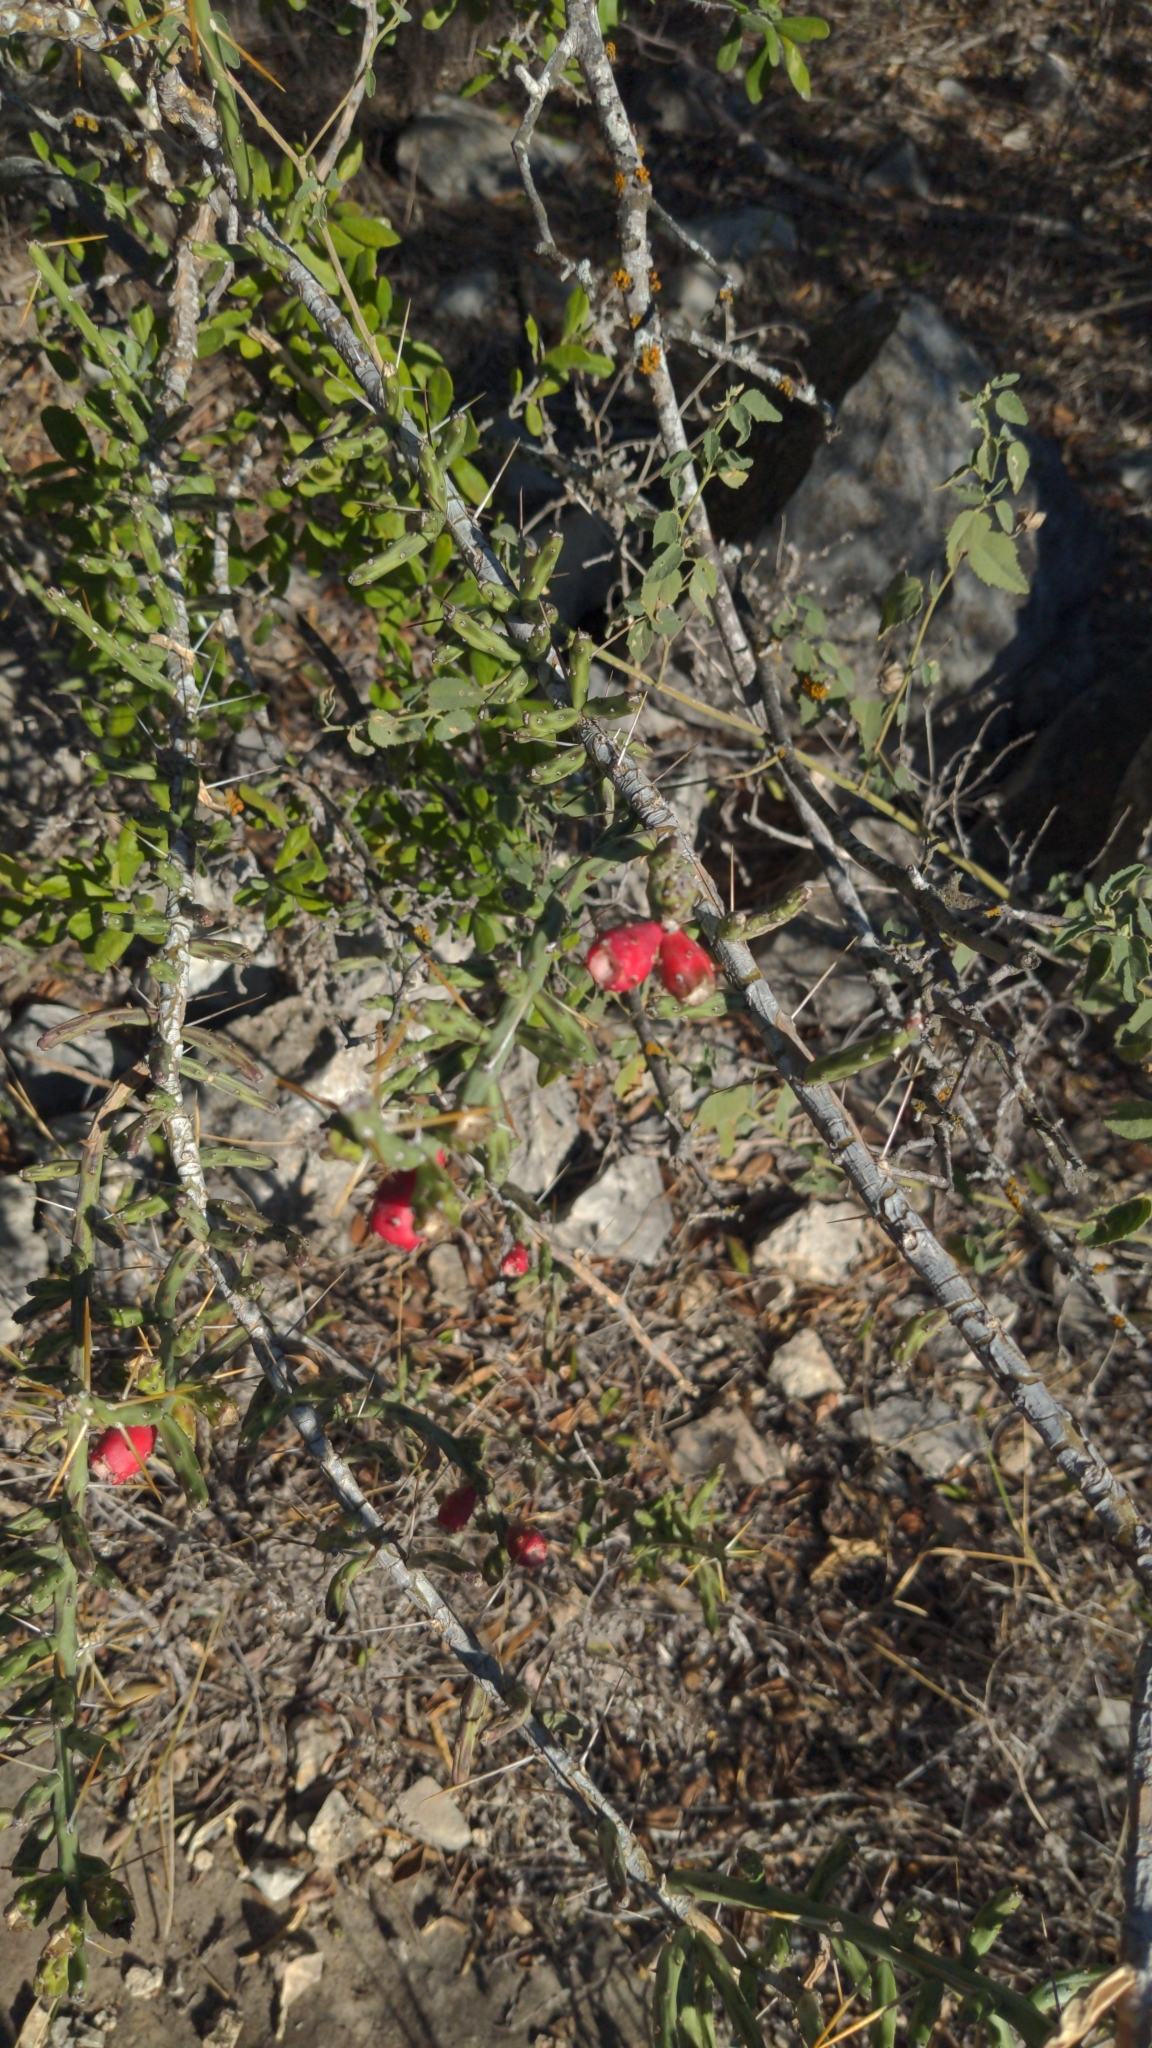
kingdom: Plantae
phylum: Tracheophyta
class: Magnoliopsida
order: Caryophyllales
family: Cactaceae
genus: Cylindropuntia
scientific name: Cylindropuntia leptocaulis
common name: Christmas cactus
